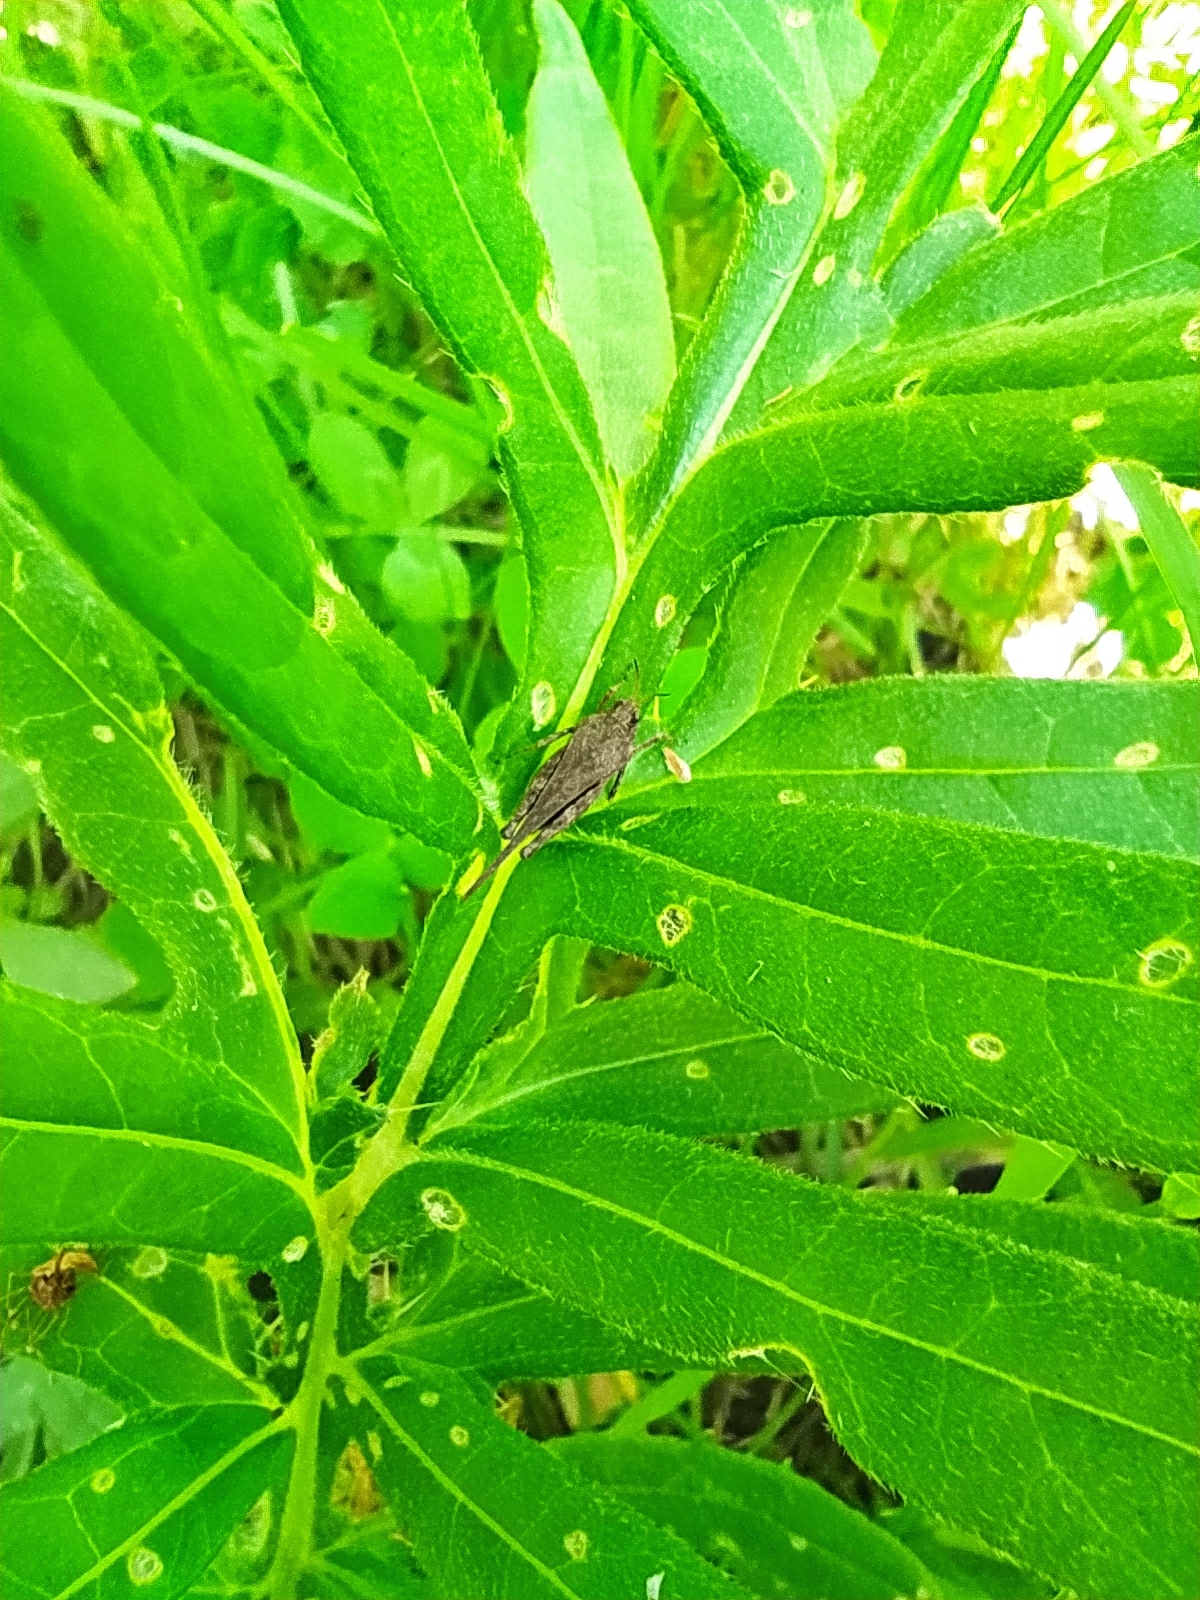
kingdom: Animalia
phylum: Arthropoda
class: Insecta
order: Orthoptera
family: Tetrigidae
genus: Tetrix
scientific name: Tetrix subulata
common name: Slender ground-hopper
